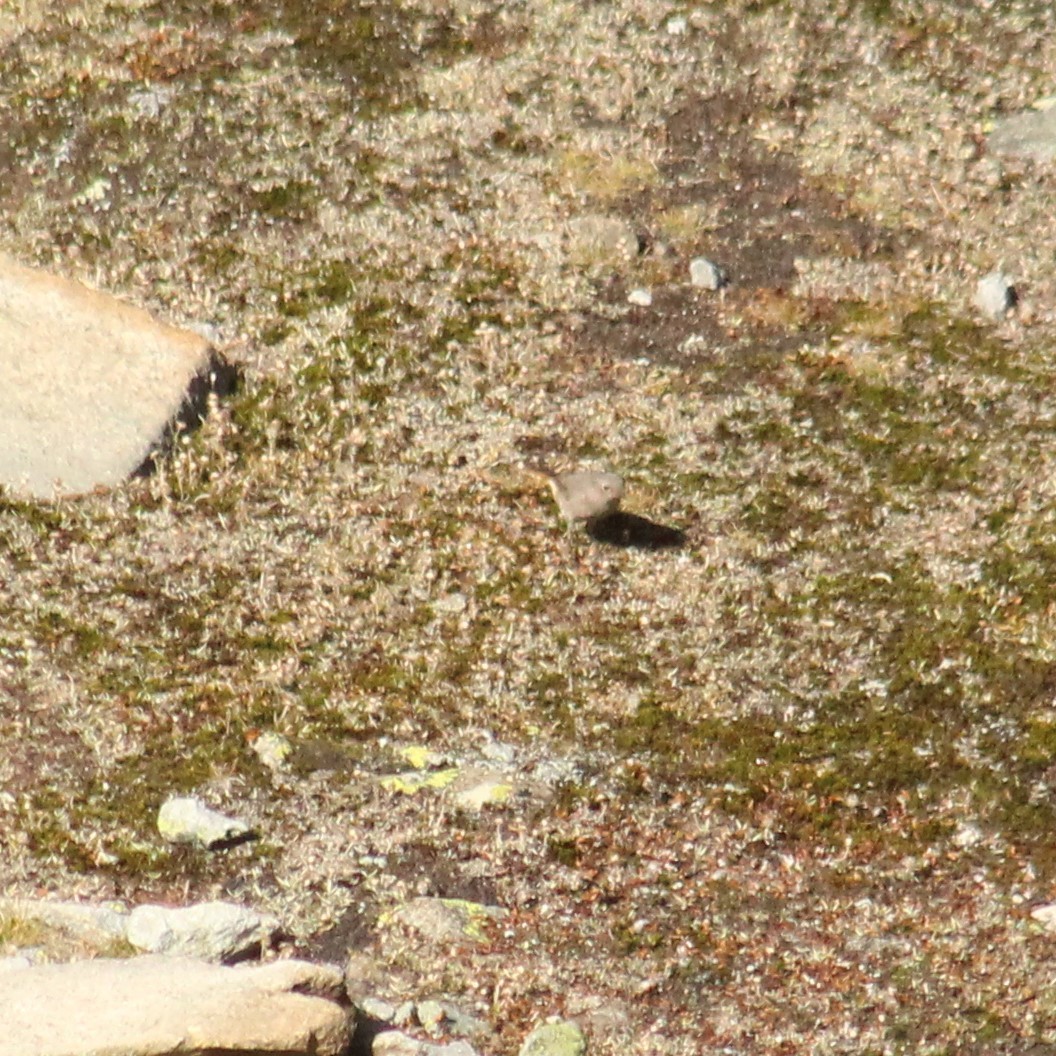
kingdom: Animalia
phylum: Chordata
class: Aves
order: Passeriformes
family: Muscicapidae
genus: Phoenicurus
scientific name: Phoenicurus ochruros
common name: Black redstart
